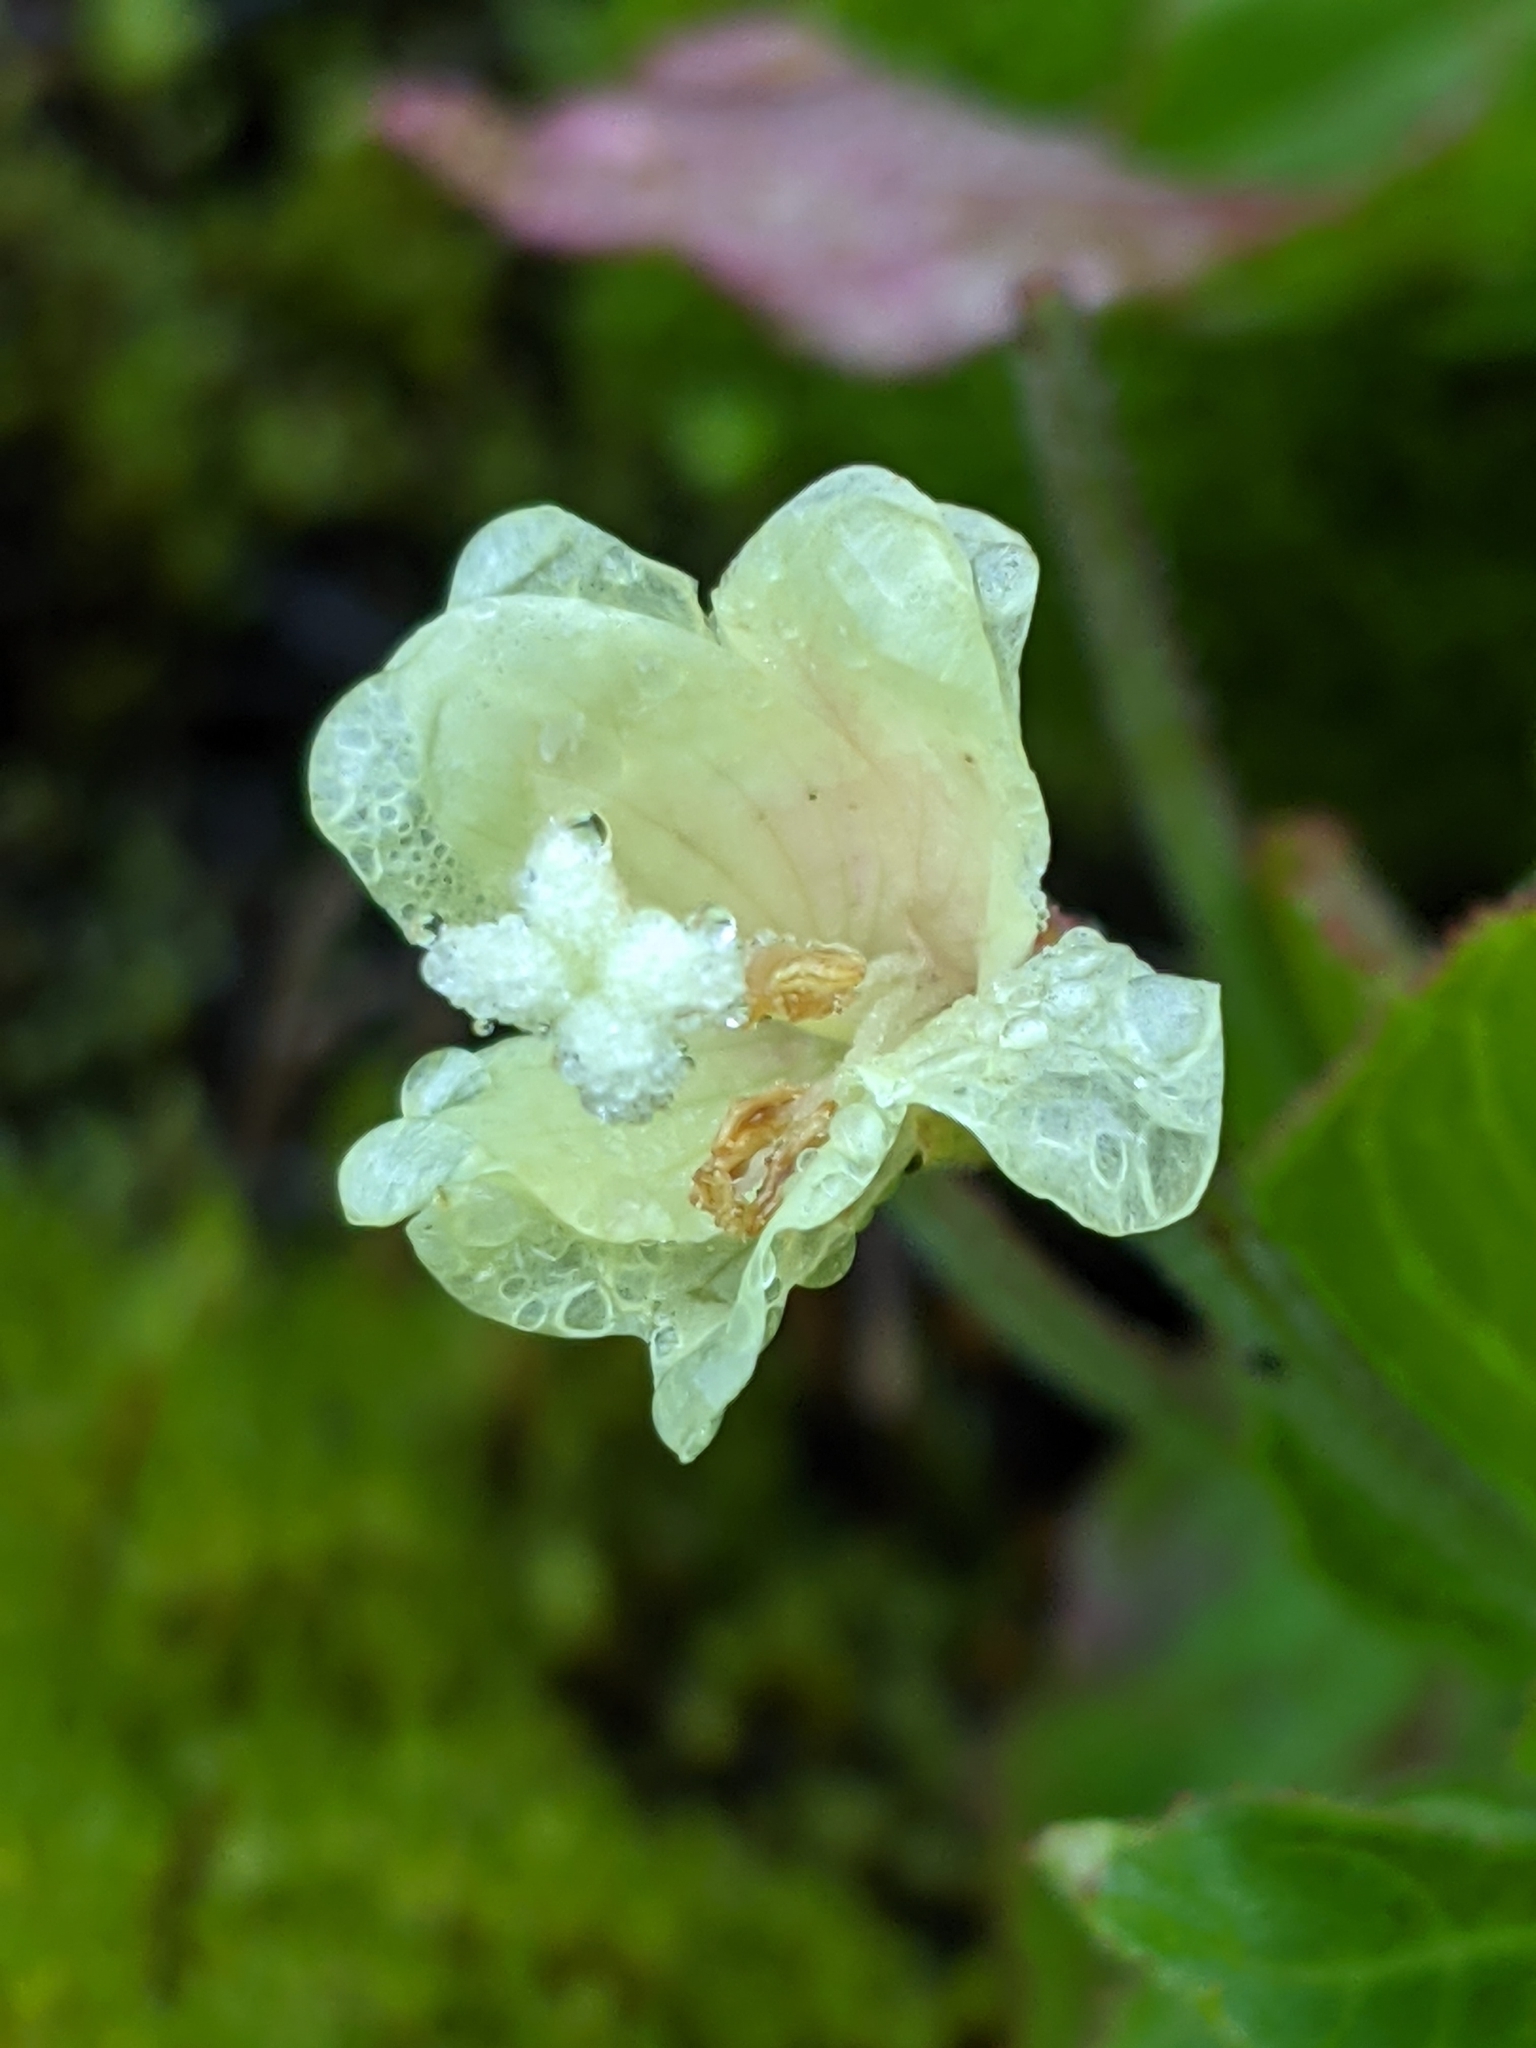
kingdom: Plantae
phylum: Tracheophyta
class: Magnoliopsida
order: Myrtales
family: Onagraceae
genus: Epilobium
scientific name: Epilobium luteum
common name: Yellow willowherb
